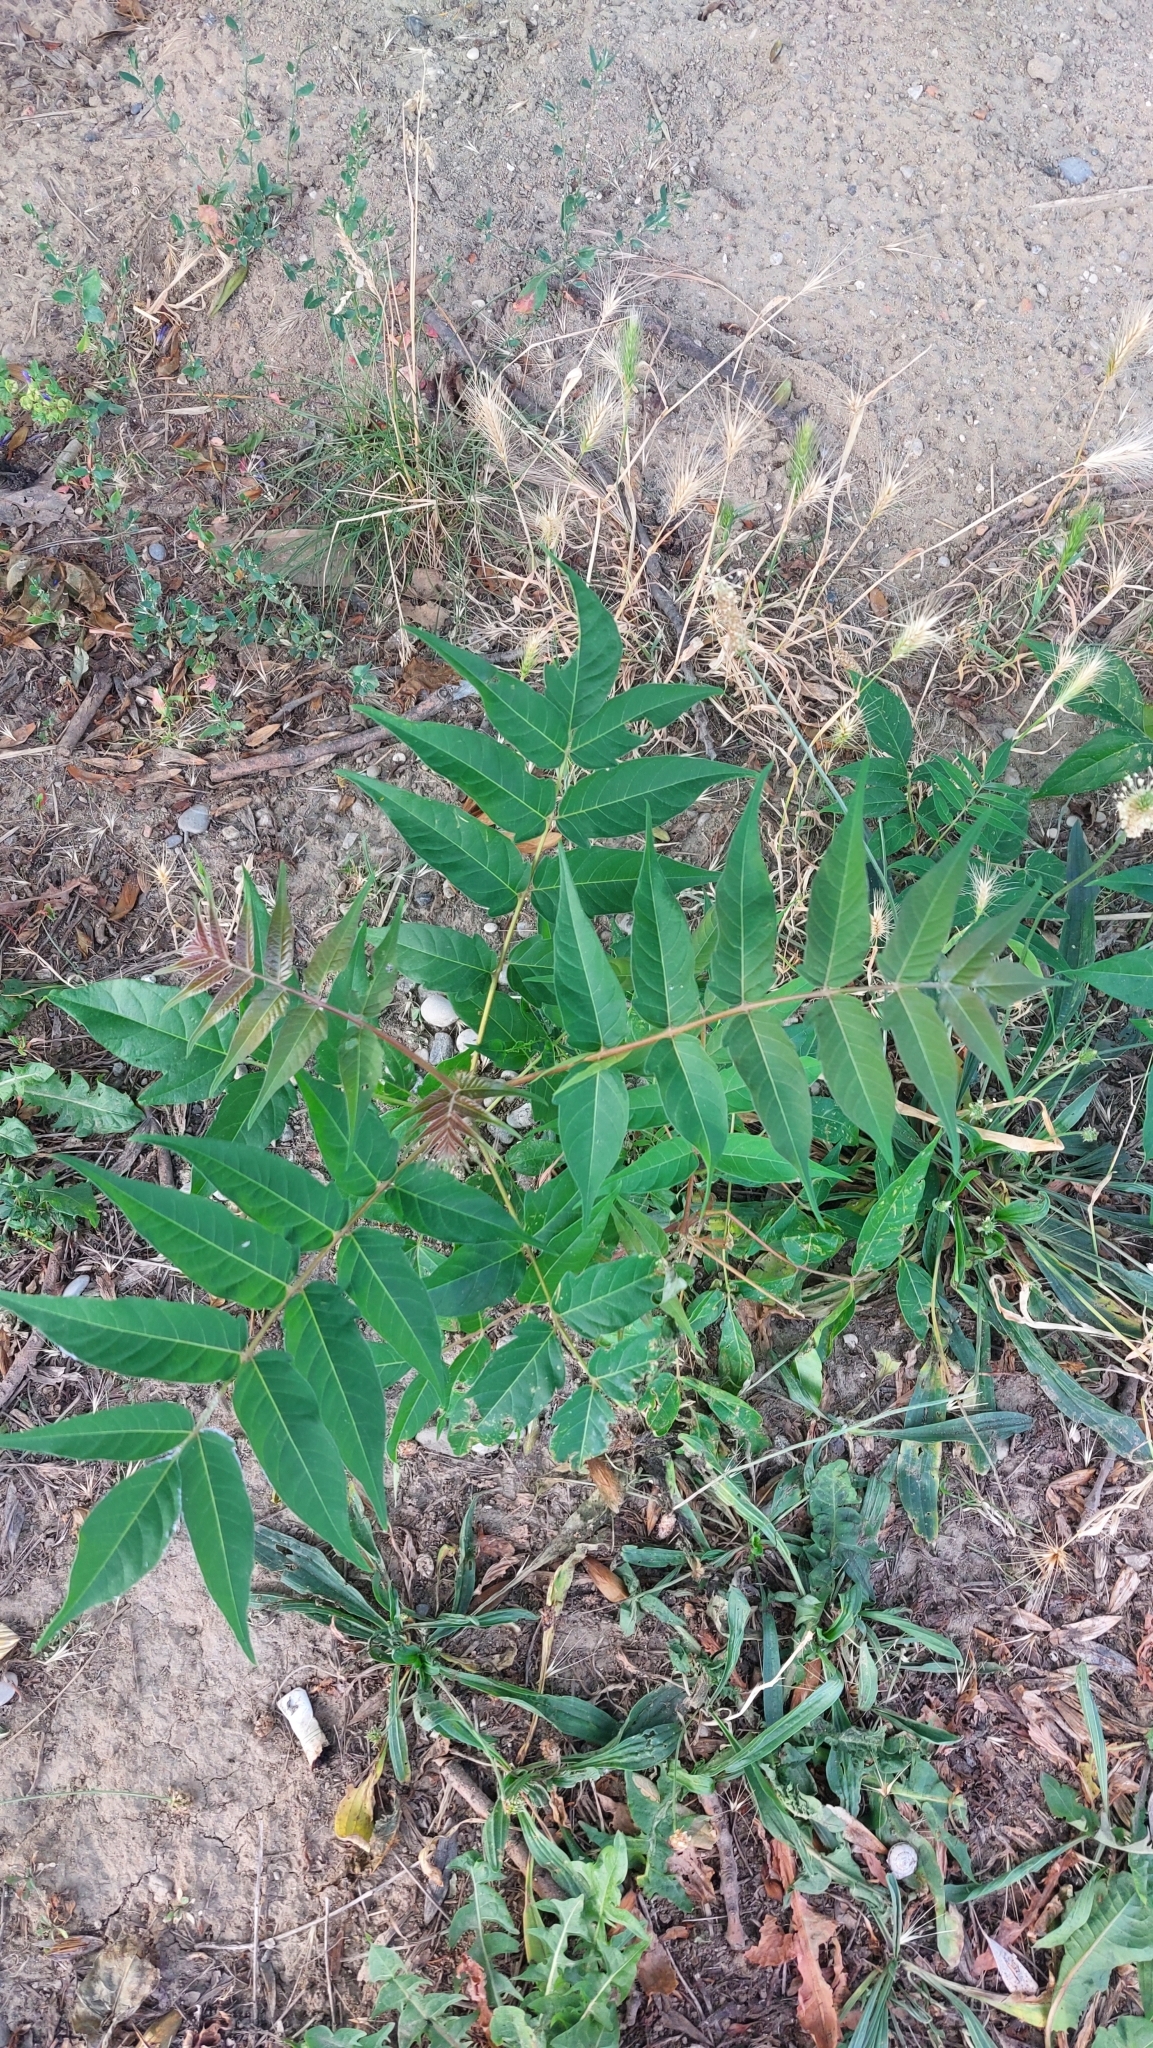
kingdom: Plantae
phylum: Tracheophyta
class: Magnoliopsida
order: Sapindales
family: Simaroubaceae
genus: Ailanthus
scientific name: Ailanthus altissima
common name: Tree-of-heaven
